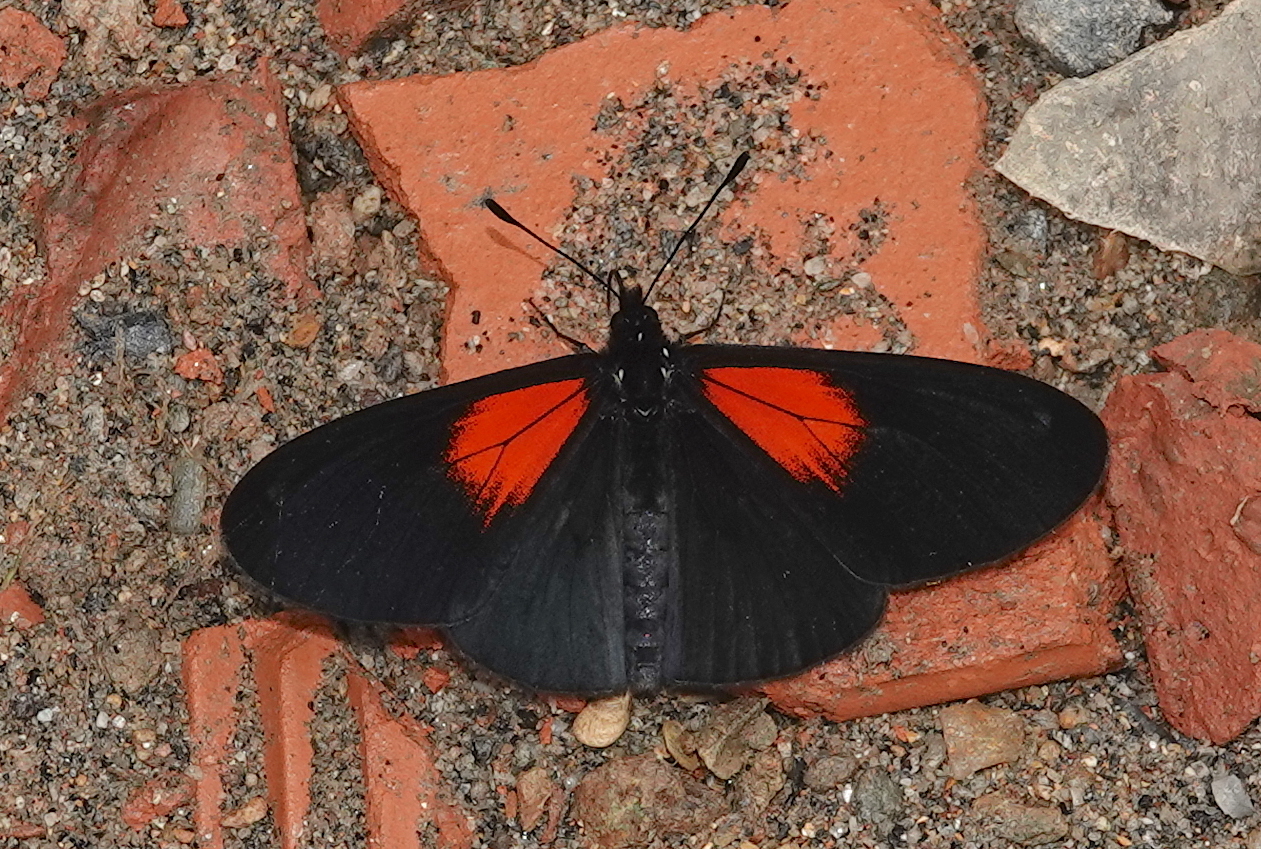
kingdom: Animalia
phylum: Arthropoda
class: Insecta
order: Lepidoptera
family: Nymphalidae
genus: Acraea
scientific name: Acraea Altinote ozomene
